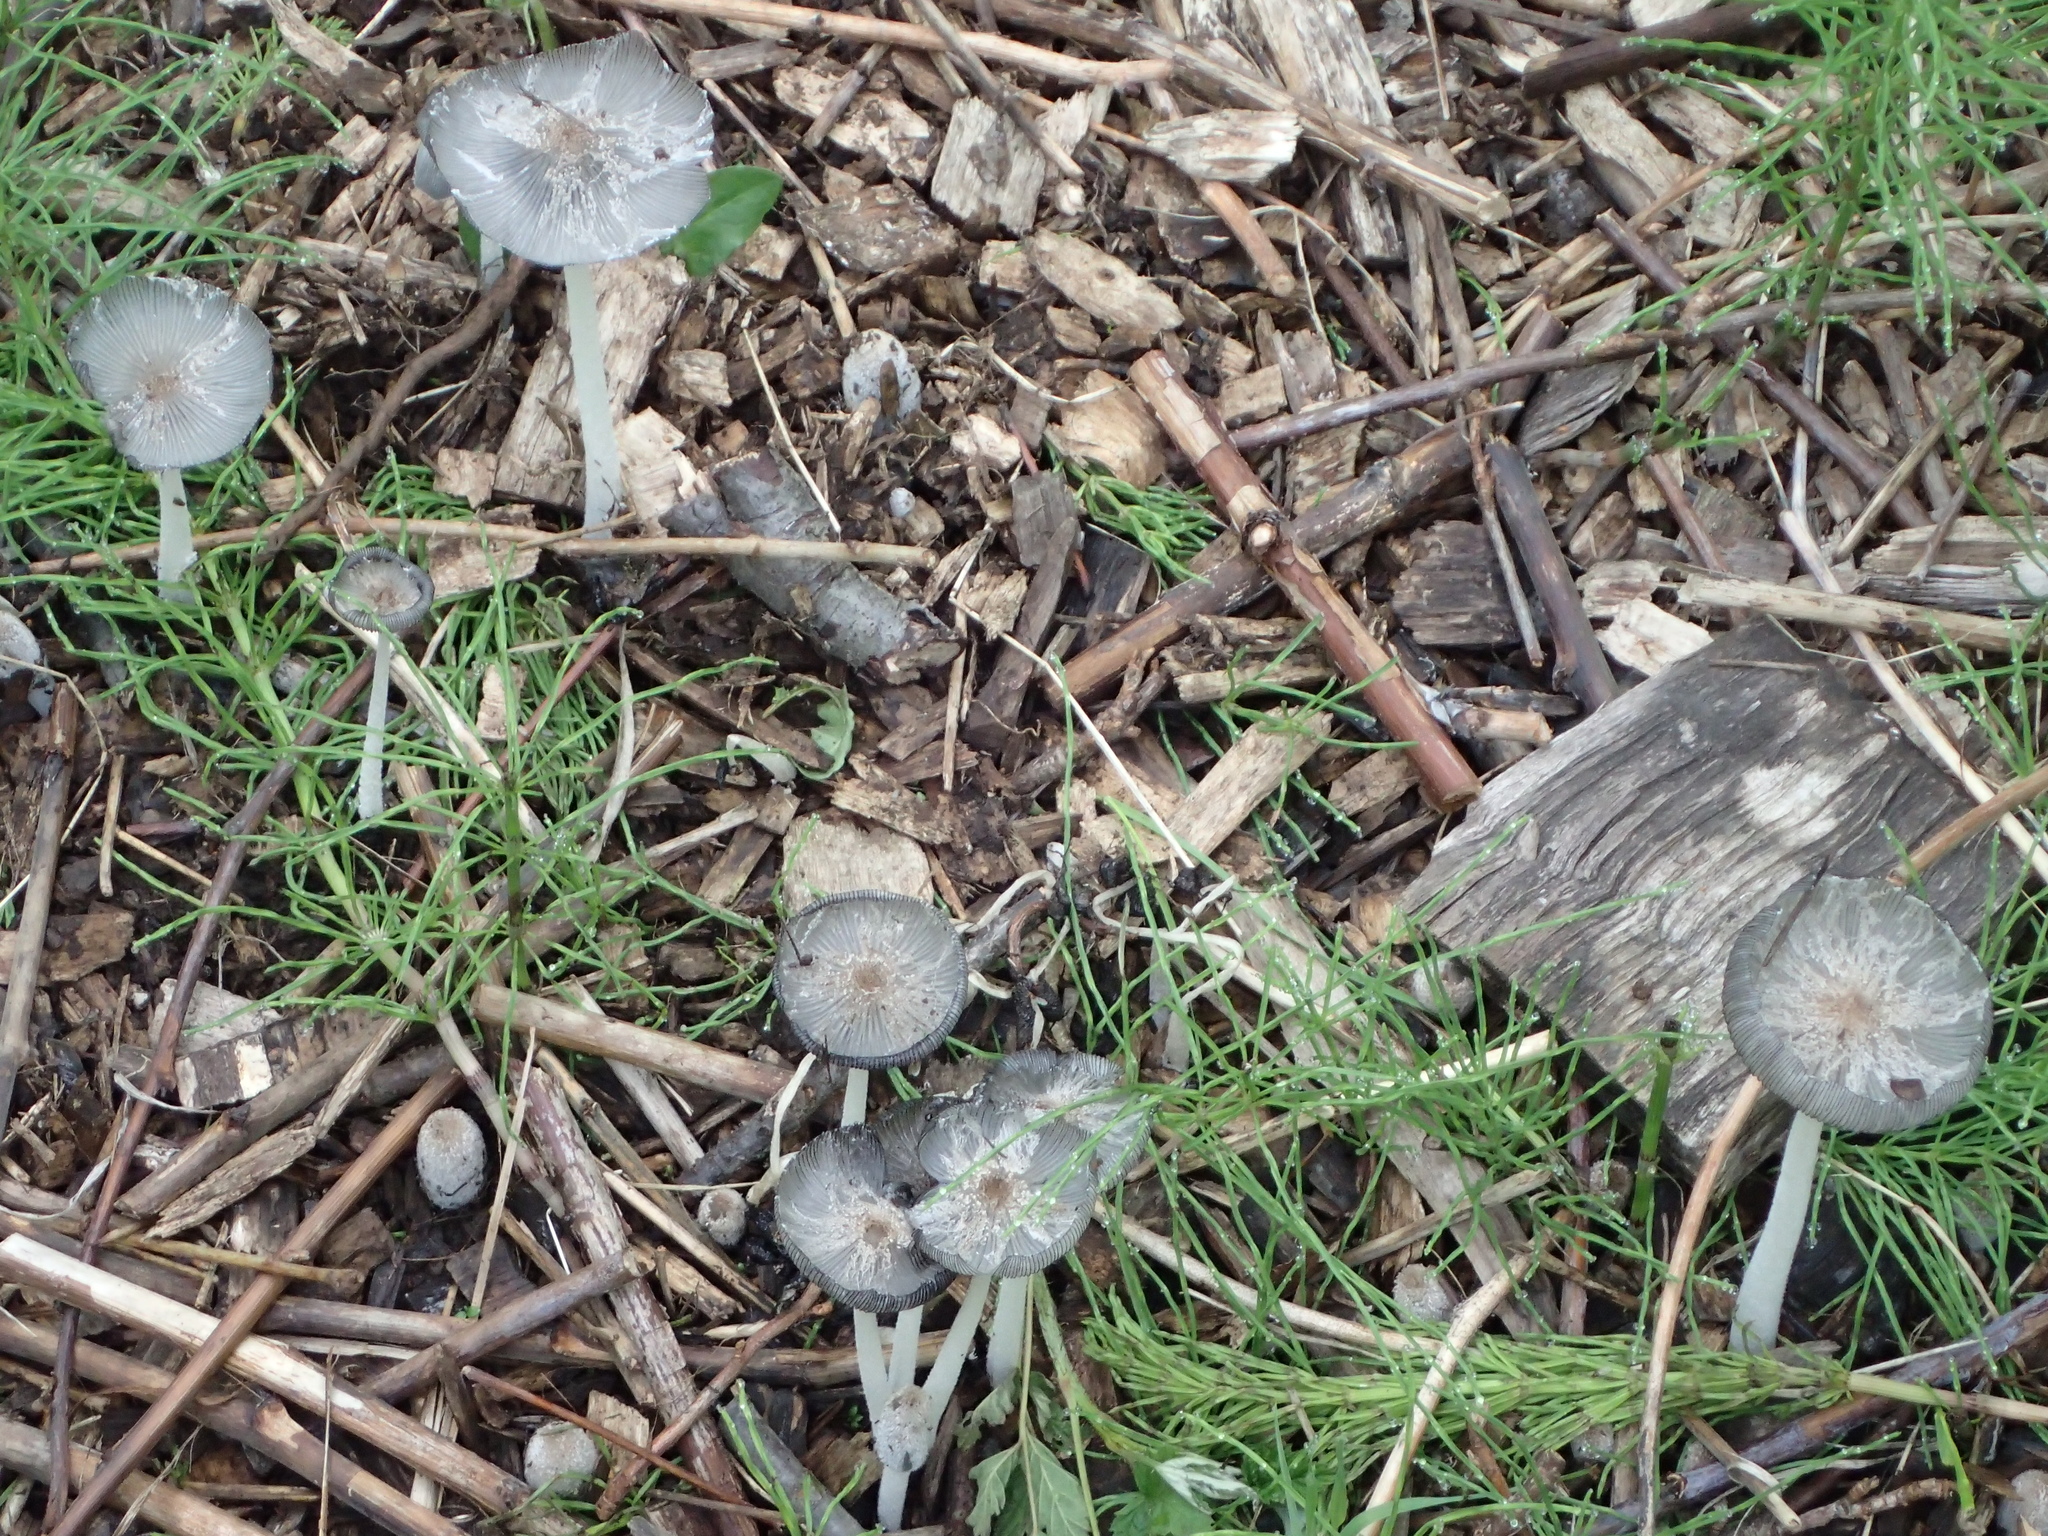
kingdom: Fungi
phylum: Basidiomycota
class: Agaricomycetes
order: Agaricales
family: Psathyrellaceae
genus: Coprinopsis
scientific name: Coprinopsis lagopus
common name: Hare'sfoot inkcap
